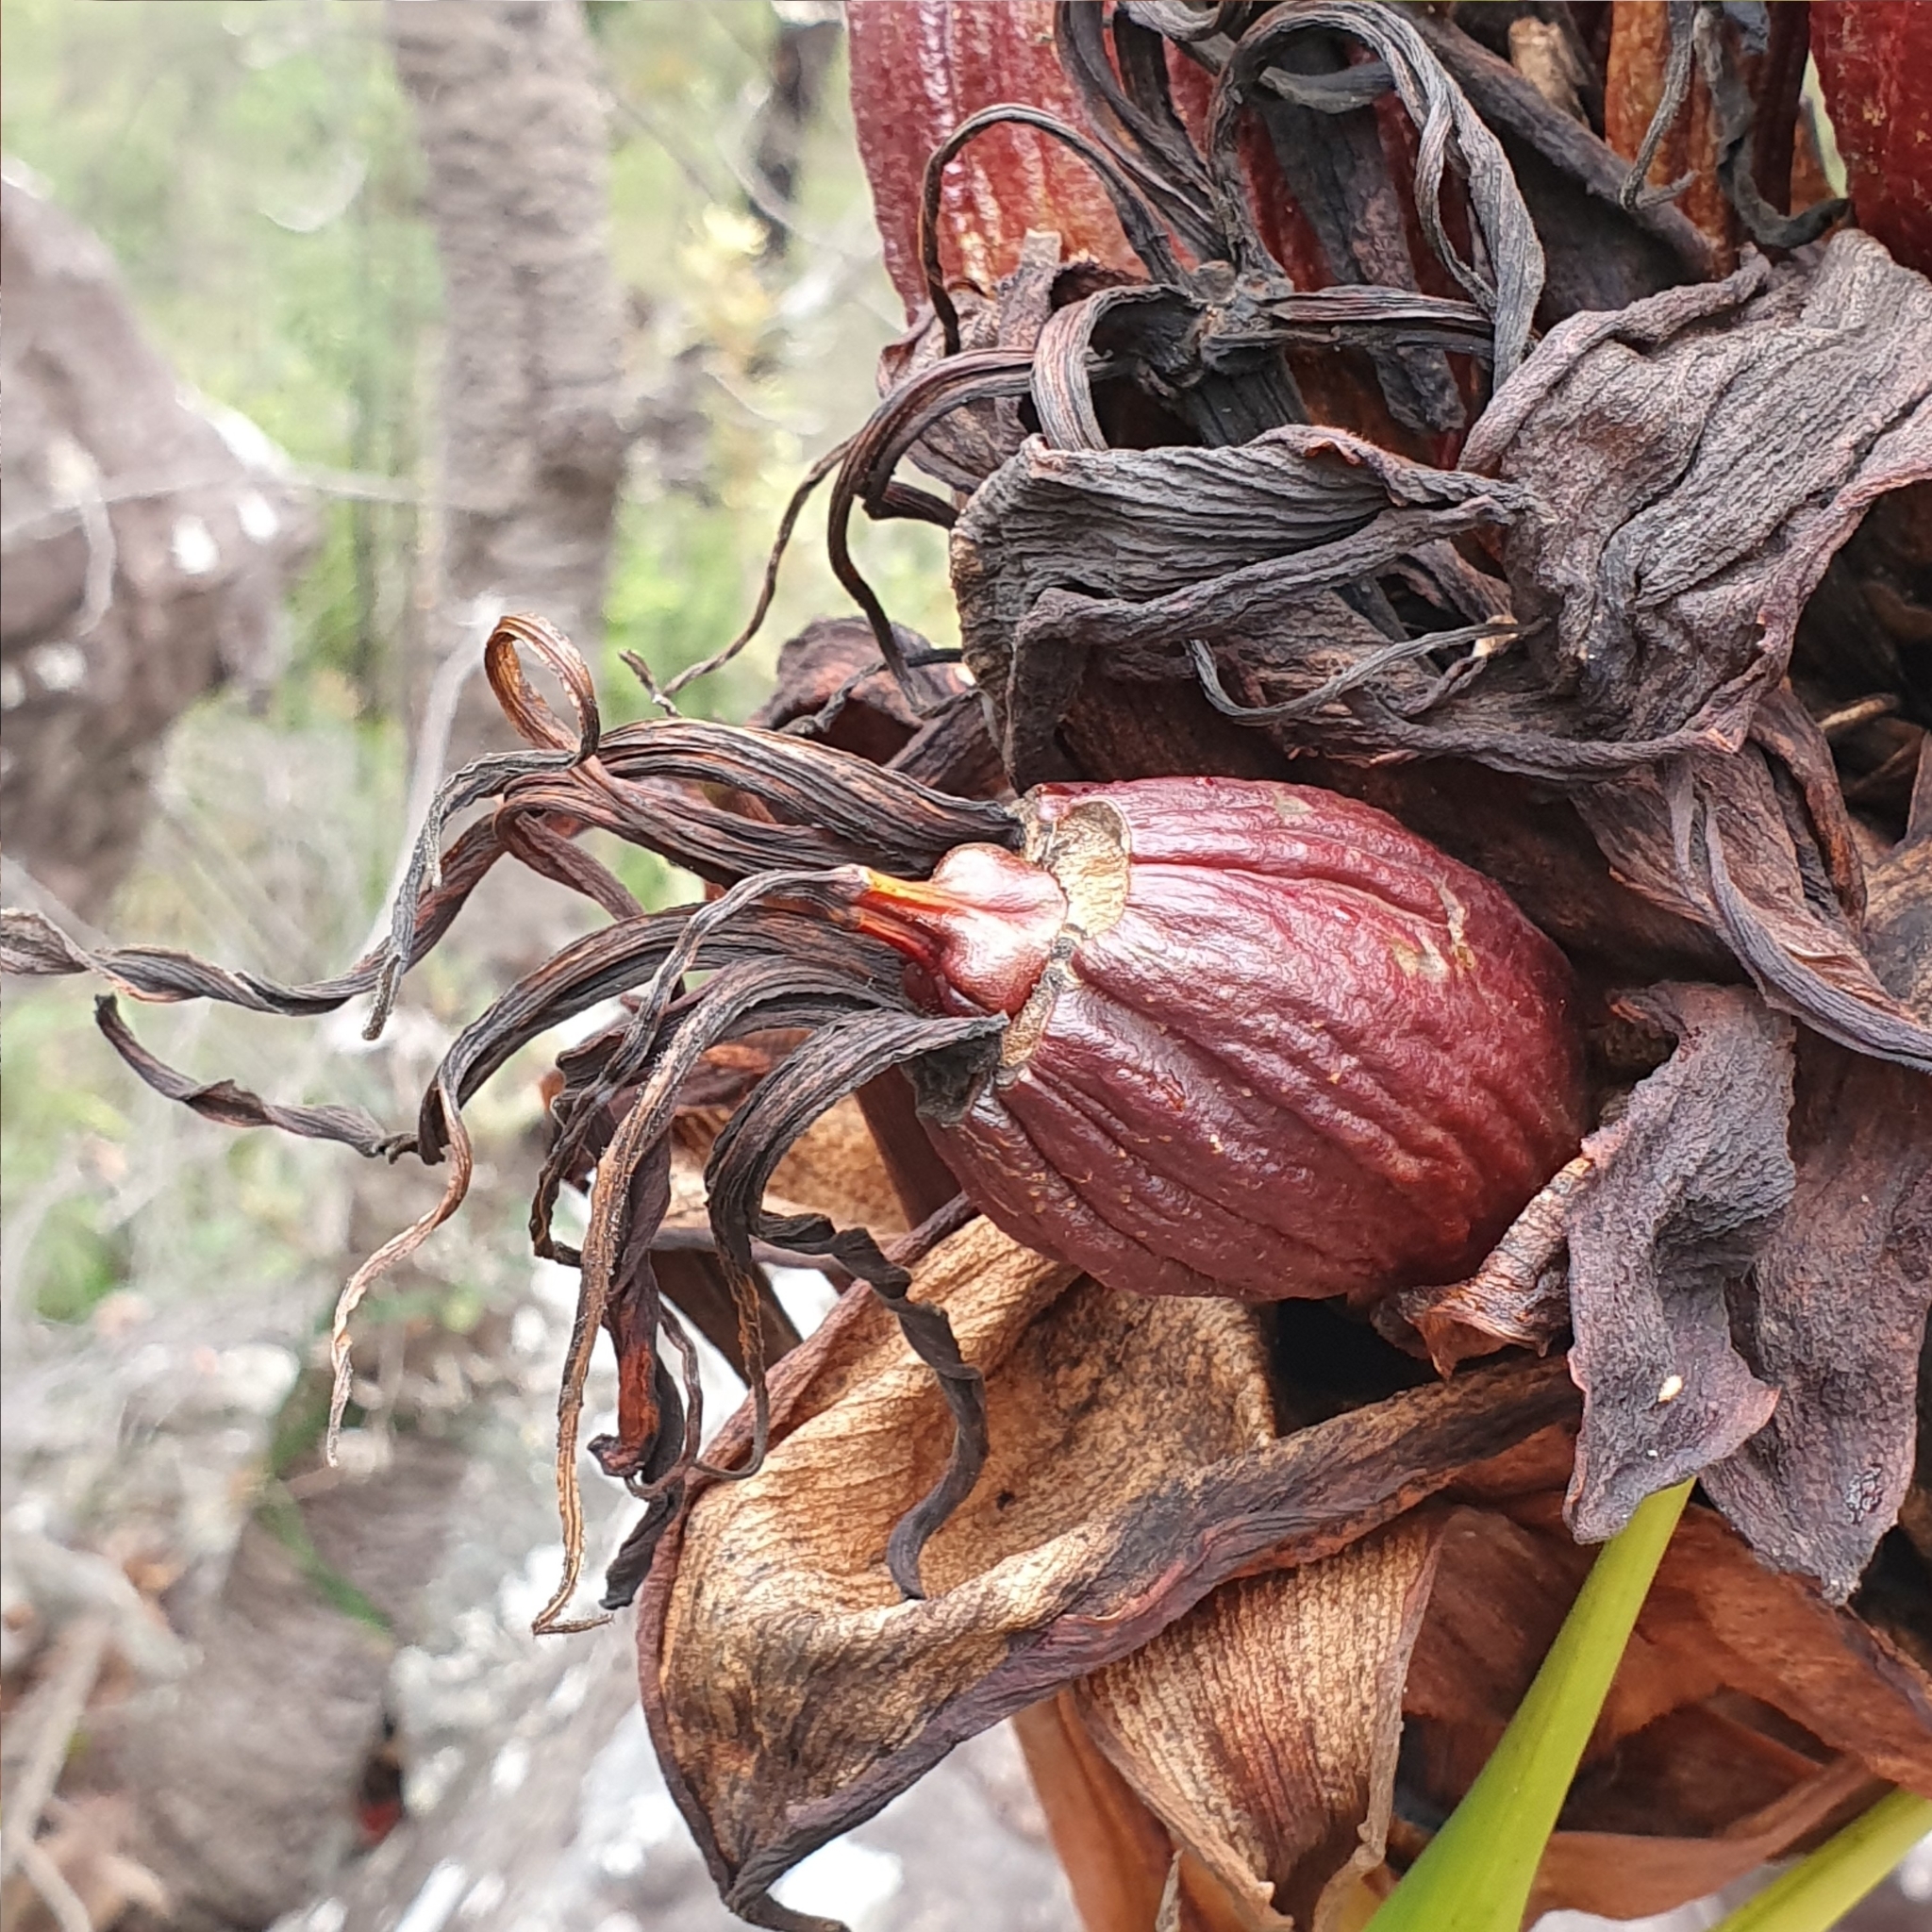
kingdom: Plantae
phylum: Tracheophyta
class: Liliopsida
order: Asparagales
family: Doryanthaceae
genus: Doryanthes
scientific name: Doryanthes excelsa
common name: Giant-lily
